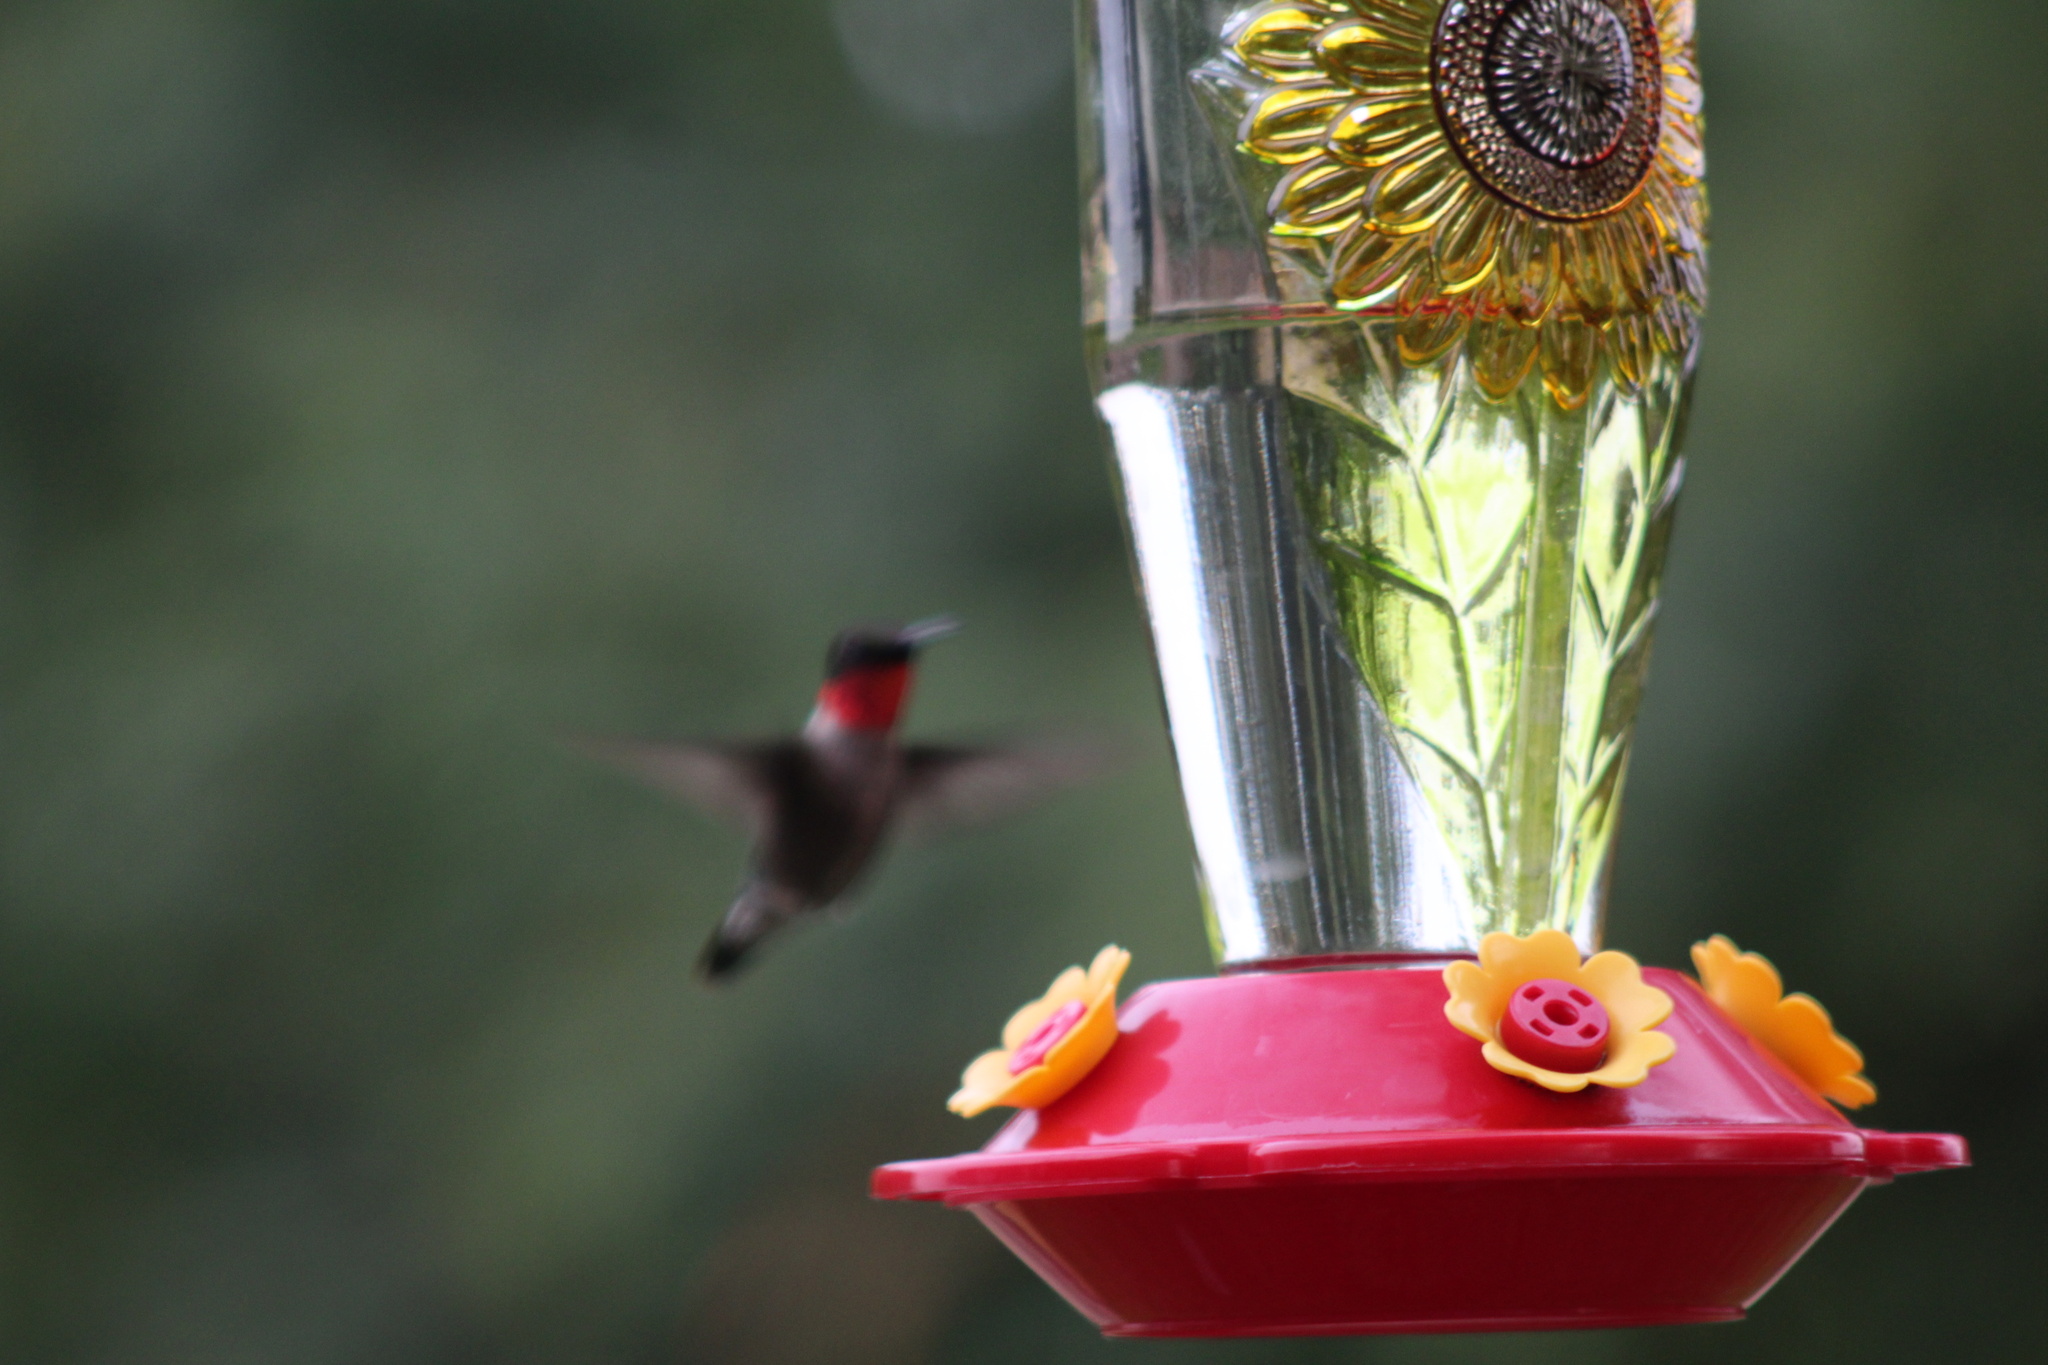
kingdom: Animalia
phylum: Chordata
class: Aves
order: Apodiformes
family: Trochilidae
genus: Archilochus
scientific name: Archilochus colubris
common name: Ruby-throated hummingbird
